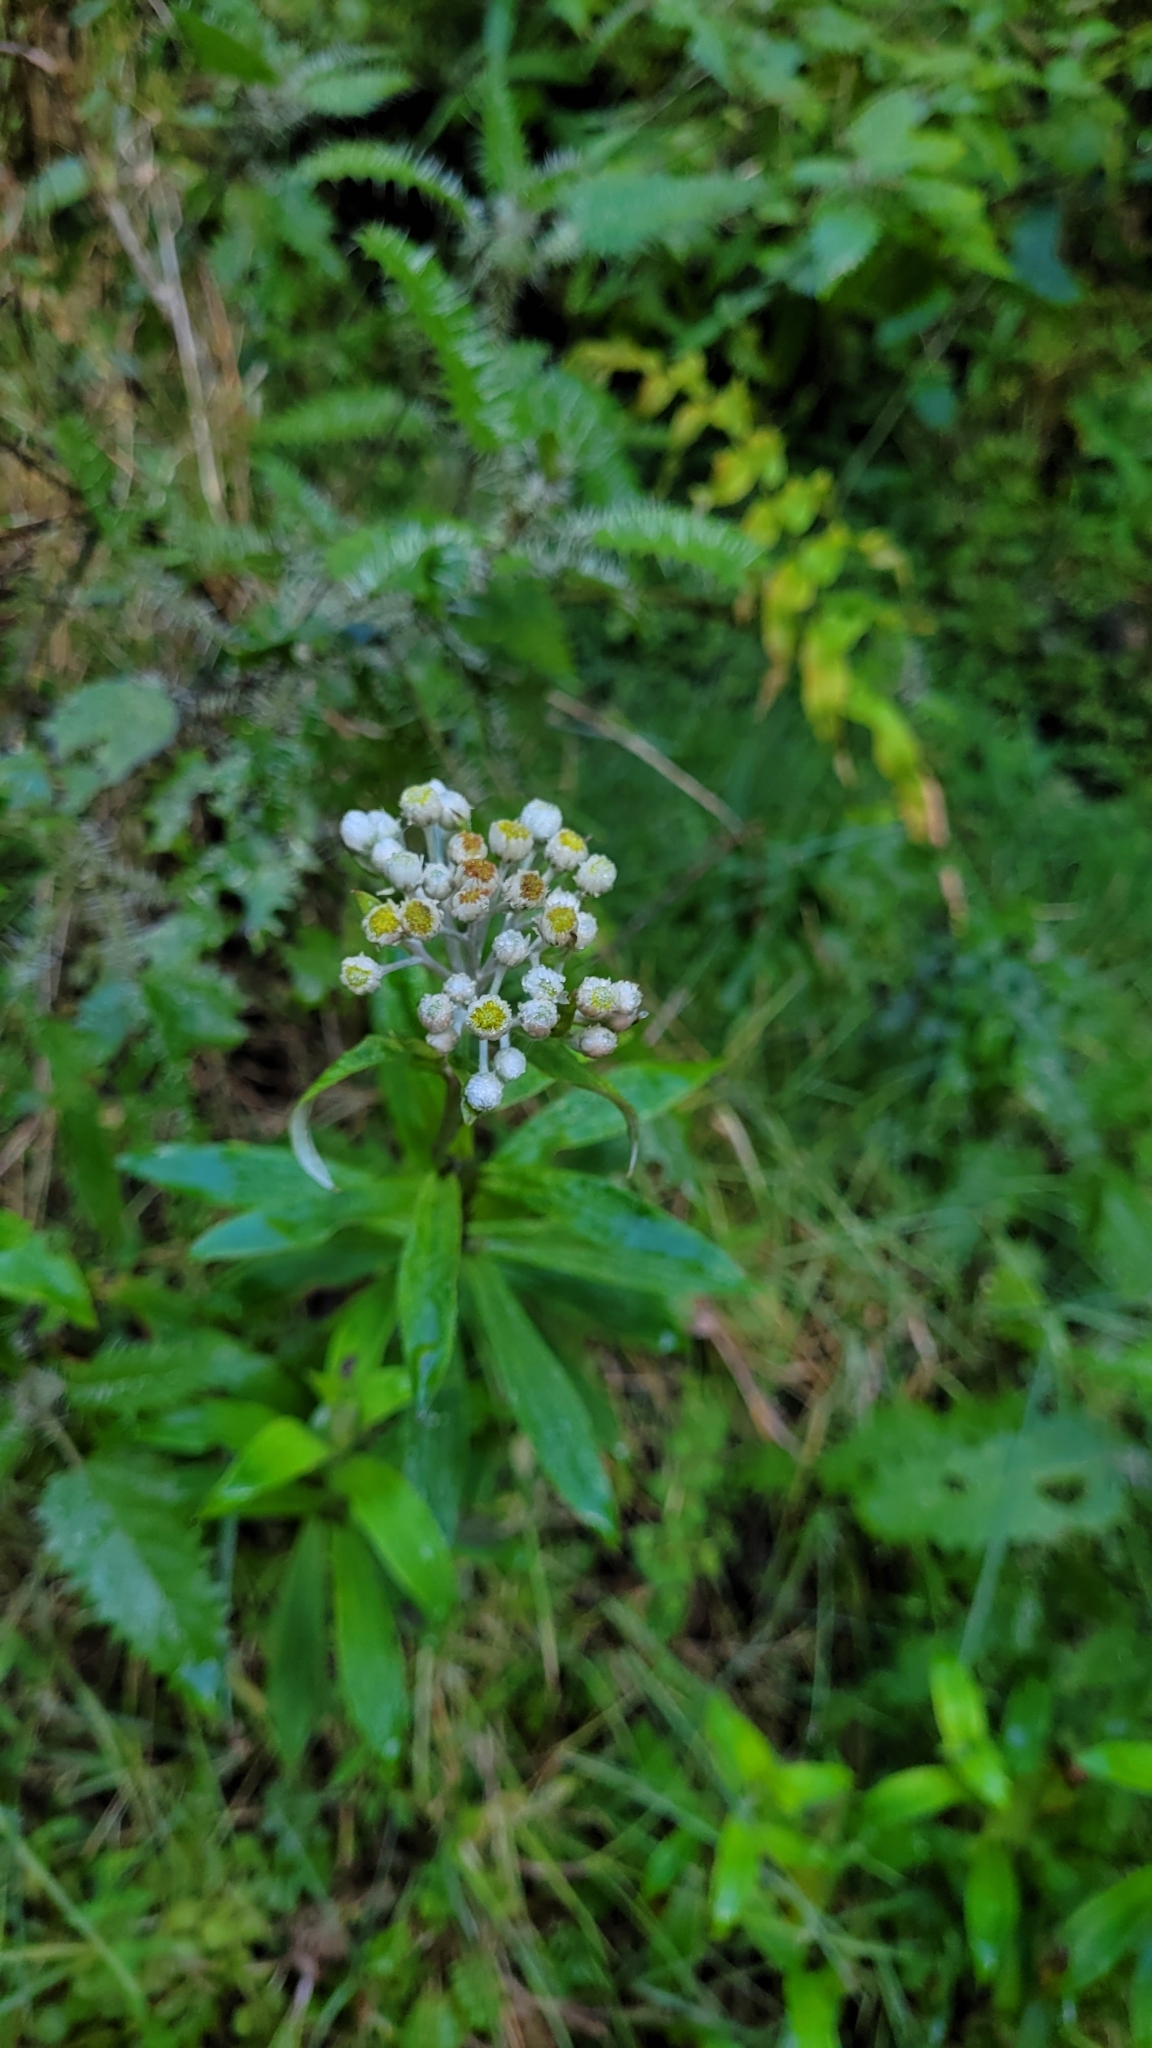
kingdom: Plantae
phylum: Tracheophyta
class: Magnoliopsida
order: Asterales
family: Asteraceae
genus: Anaphalioides
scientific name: Anaphalioides trinervis
